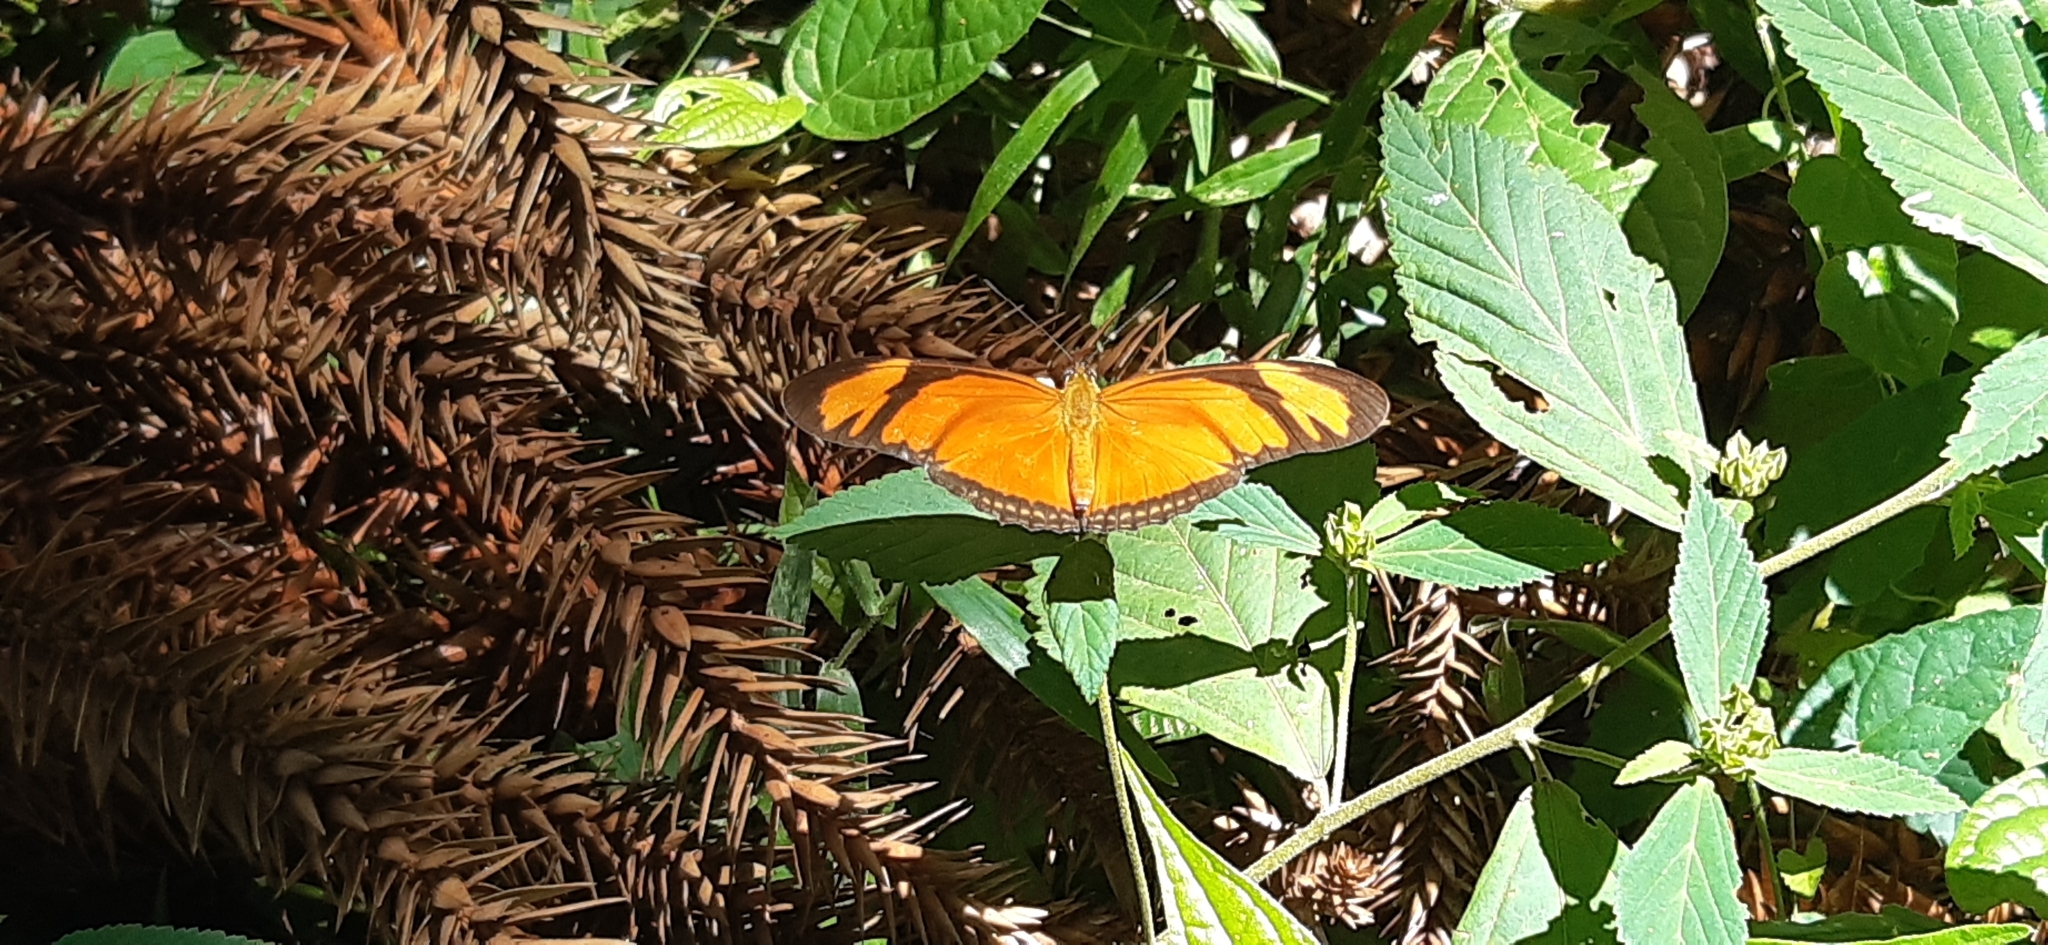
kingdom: Animalia
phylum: Arthropoda
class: Insecta
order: Lepidoptera
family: Nymphalidae
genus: Dryas
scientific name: Dryas iulia
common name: Flambeau
